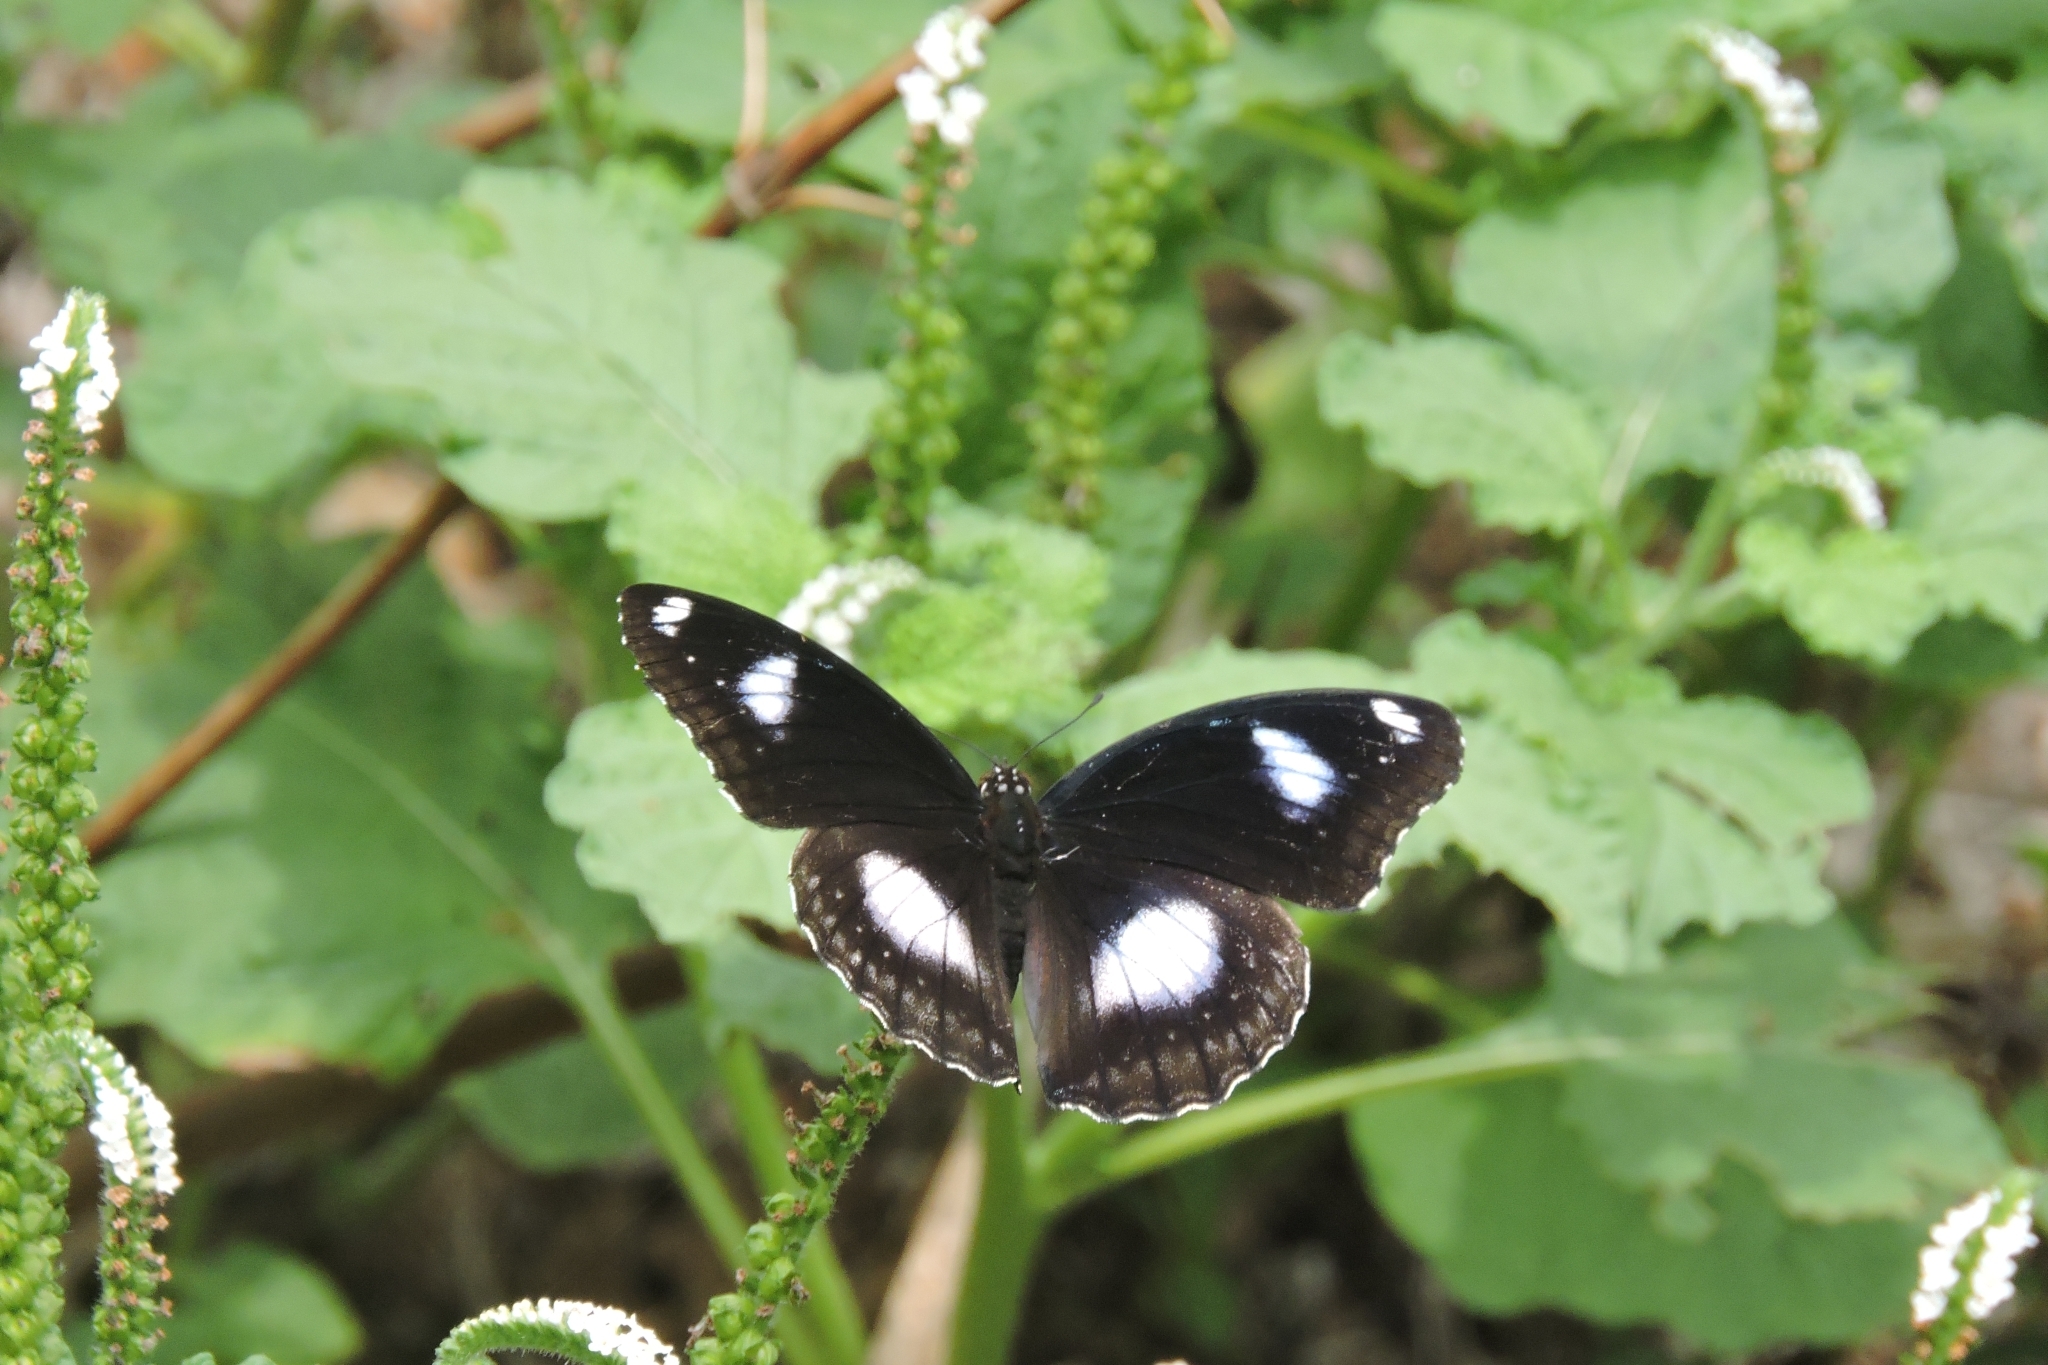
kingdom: Animalia
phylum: Arthropoda
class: Insecta
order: Lepidoptera
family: Nymphalidae
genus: Hypolimnas
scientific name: Hypolimnas bolina
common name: Great eggfly
